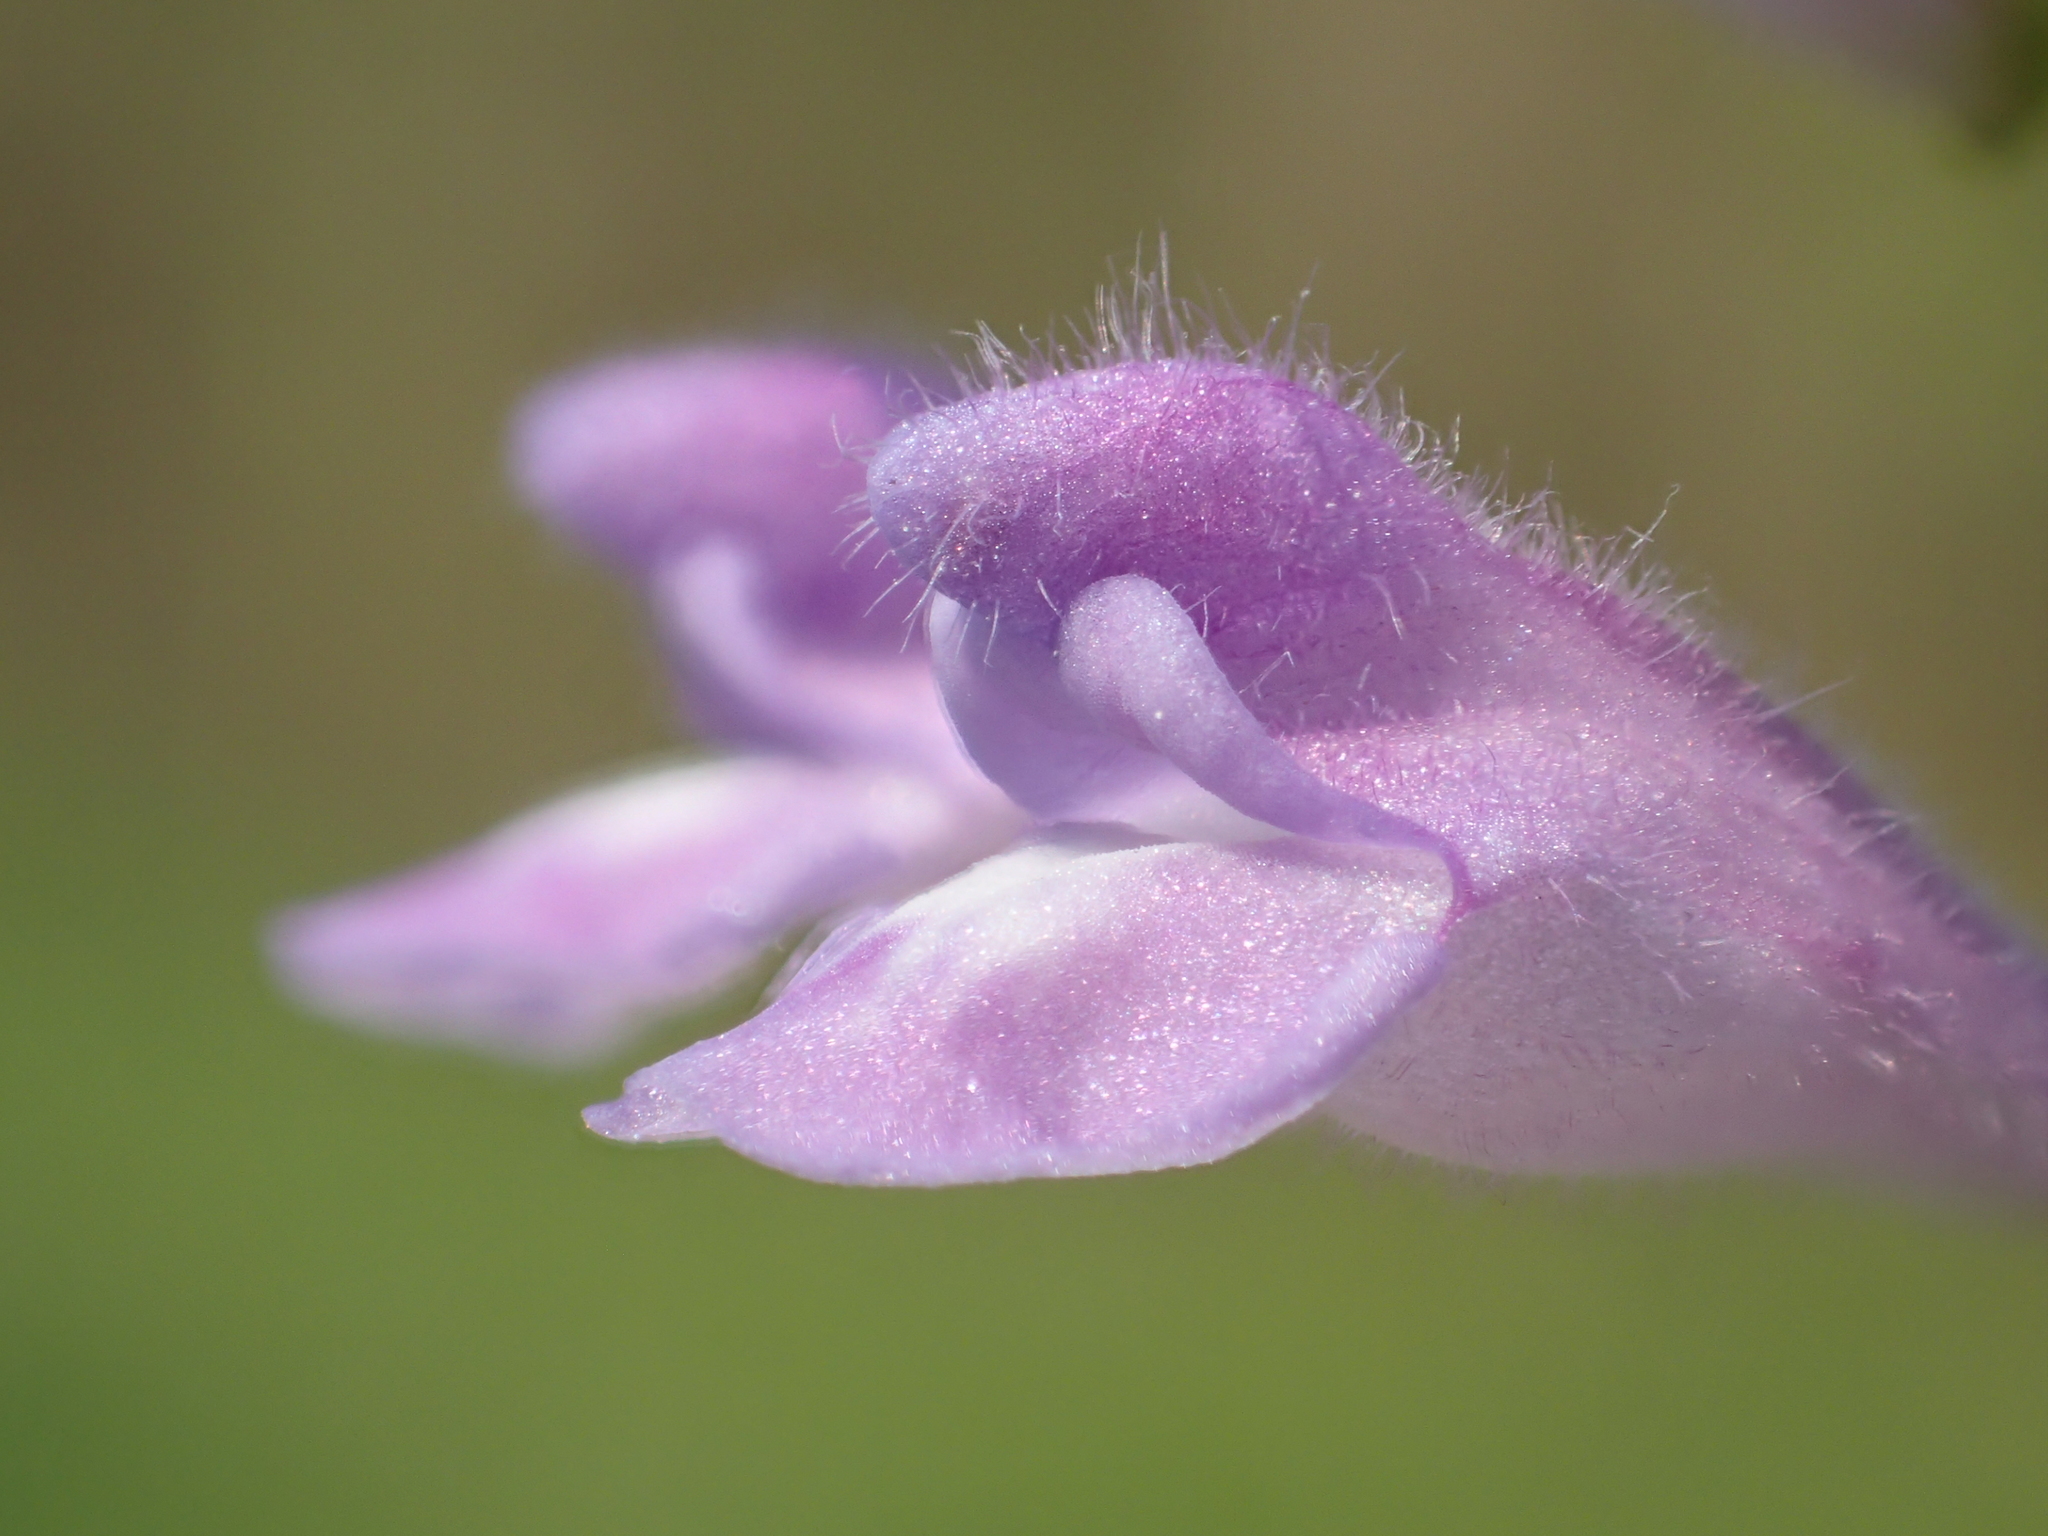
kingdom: Plantae
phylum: Tracheophyta
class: Magnoliopsida
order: Lamiales
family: Lamiaceae
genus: Scutellaria
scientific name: Scutellaria barbata
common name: Barbed skullcap
